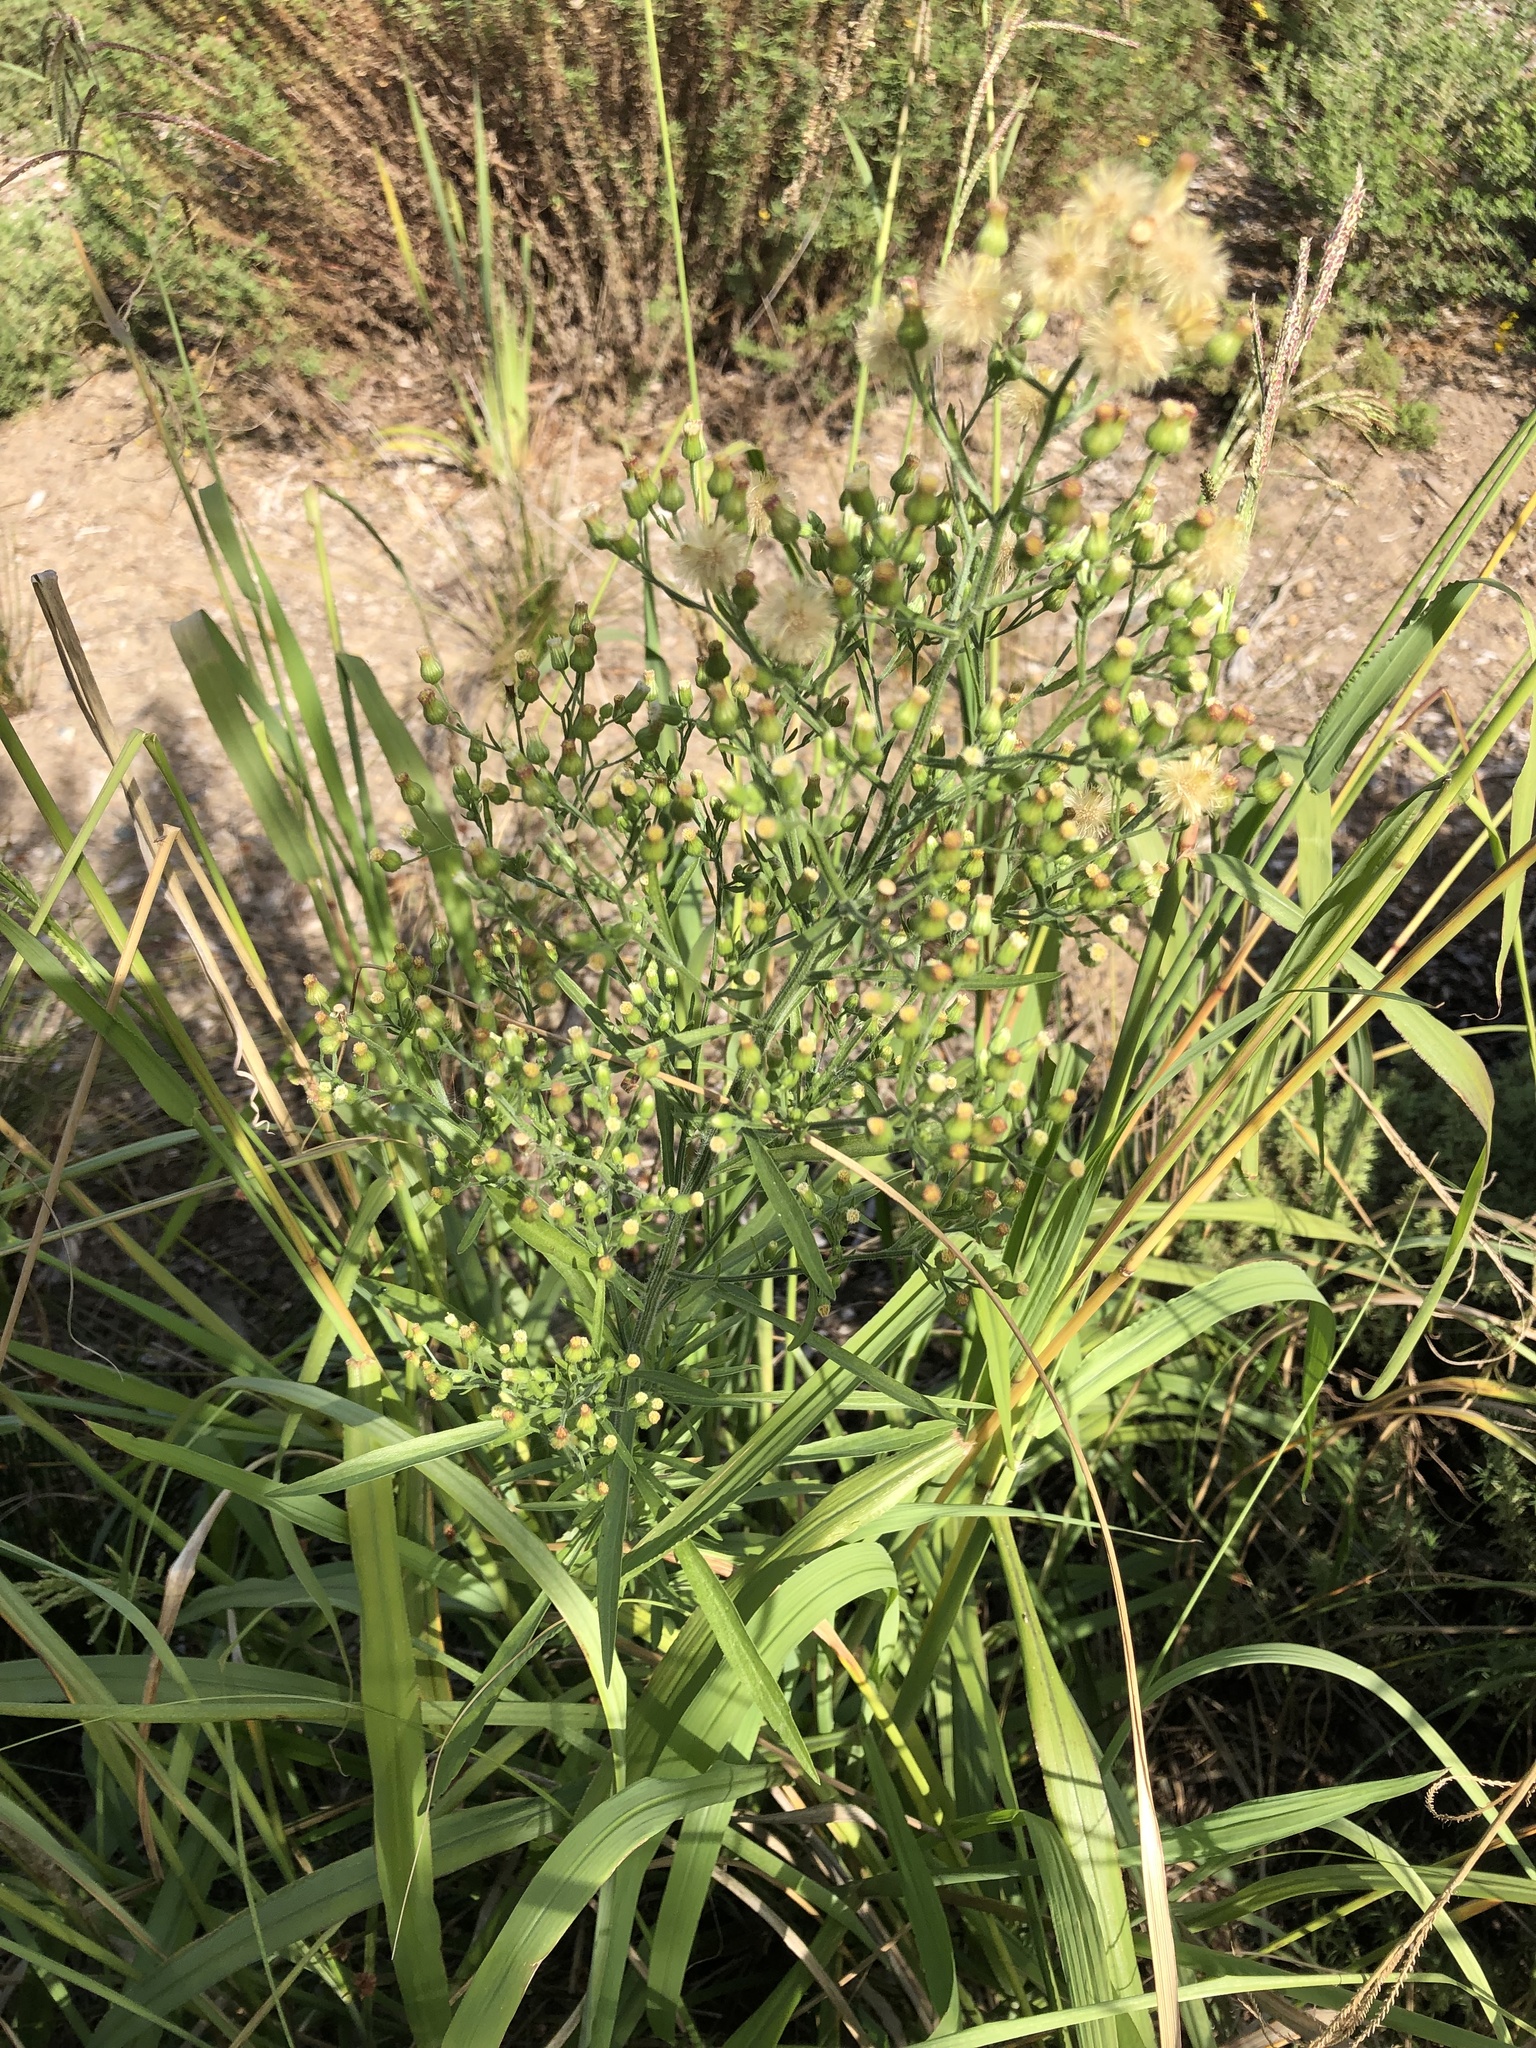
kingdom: Plantae
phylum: Tracheophyta
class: Magnoliopsida
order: Asterales
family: Asteraceae
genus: Erigeron
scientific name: Erigeron sumatrensis
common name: Daisy
